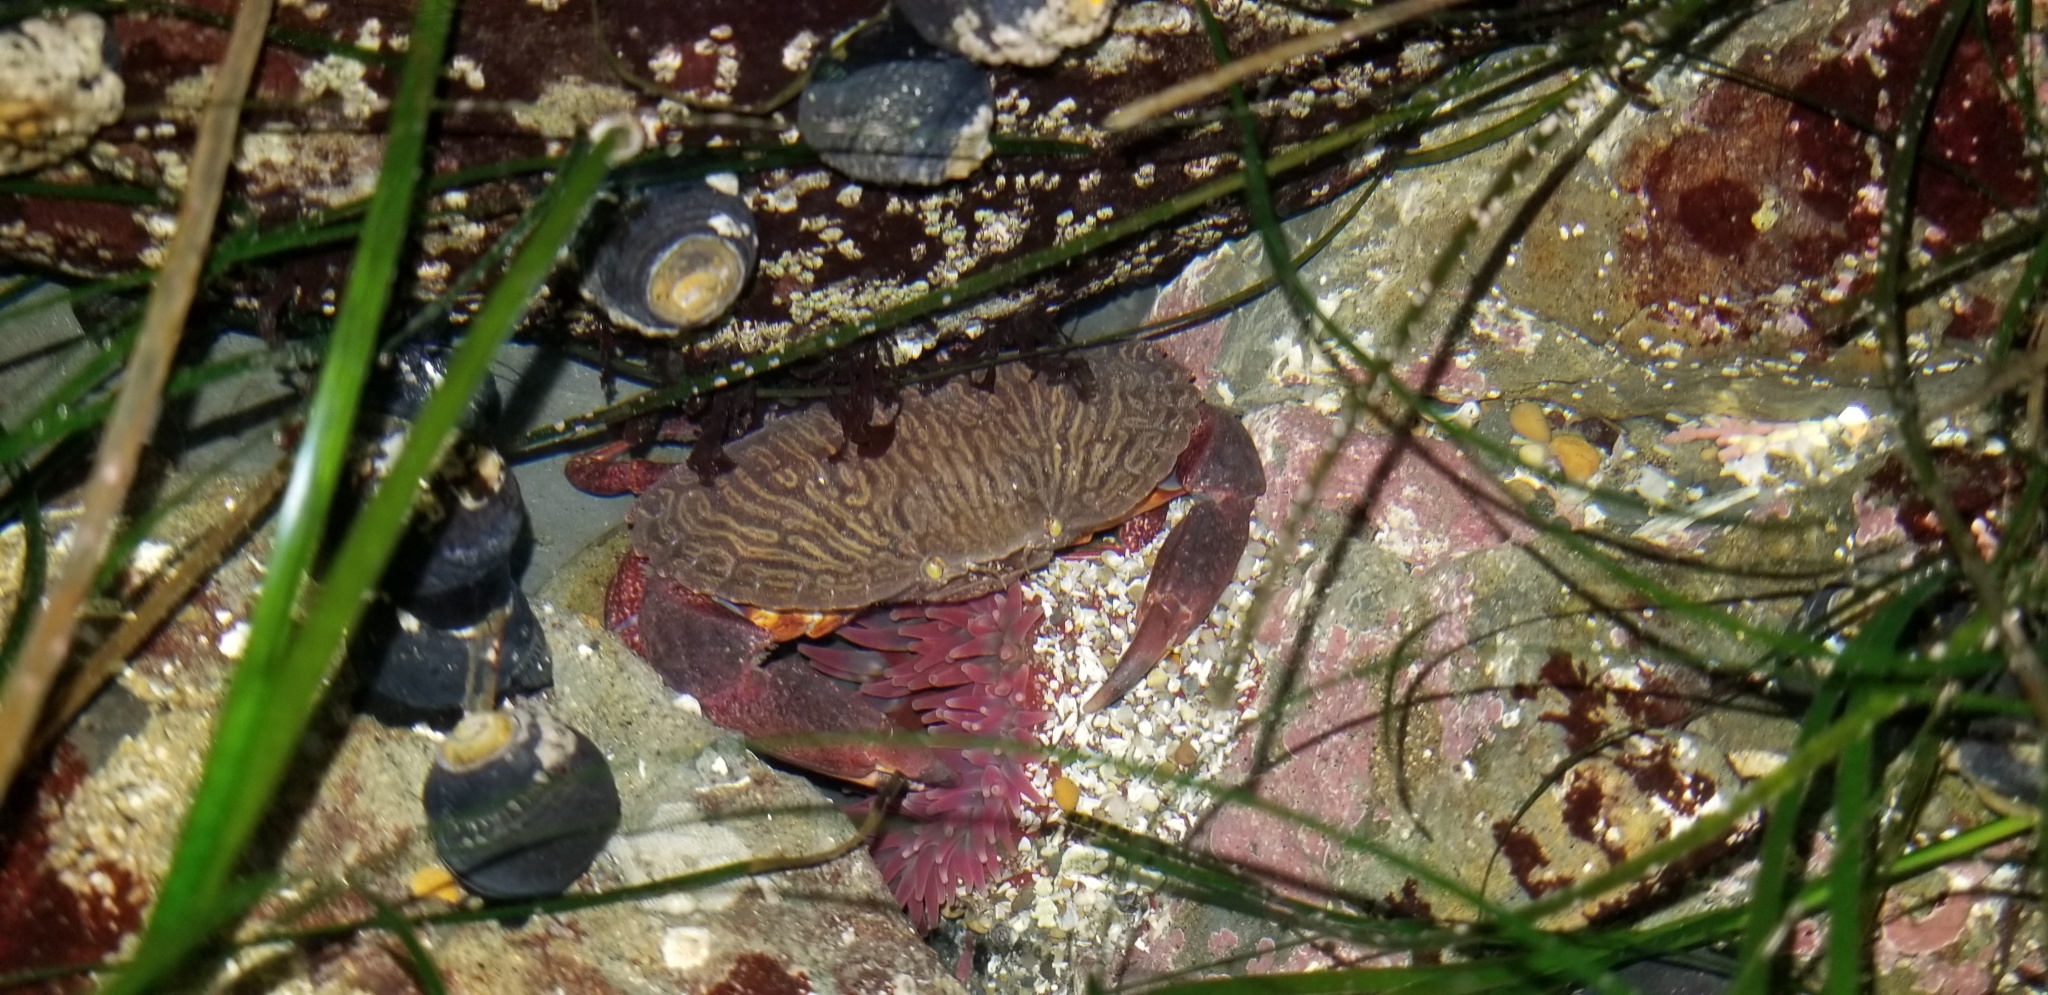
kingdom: Animalia
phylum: Arthropoda
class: Malacostraca
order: Decapoda
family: Cancridae
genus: Cancer
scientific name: Cancer productus
